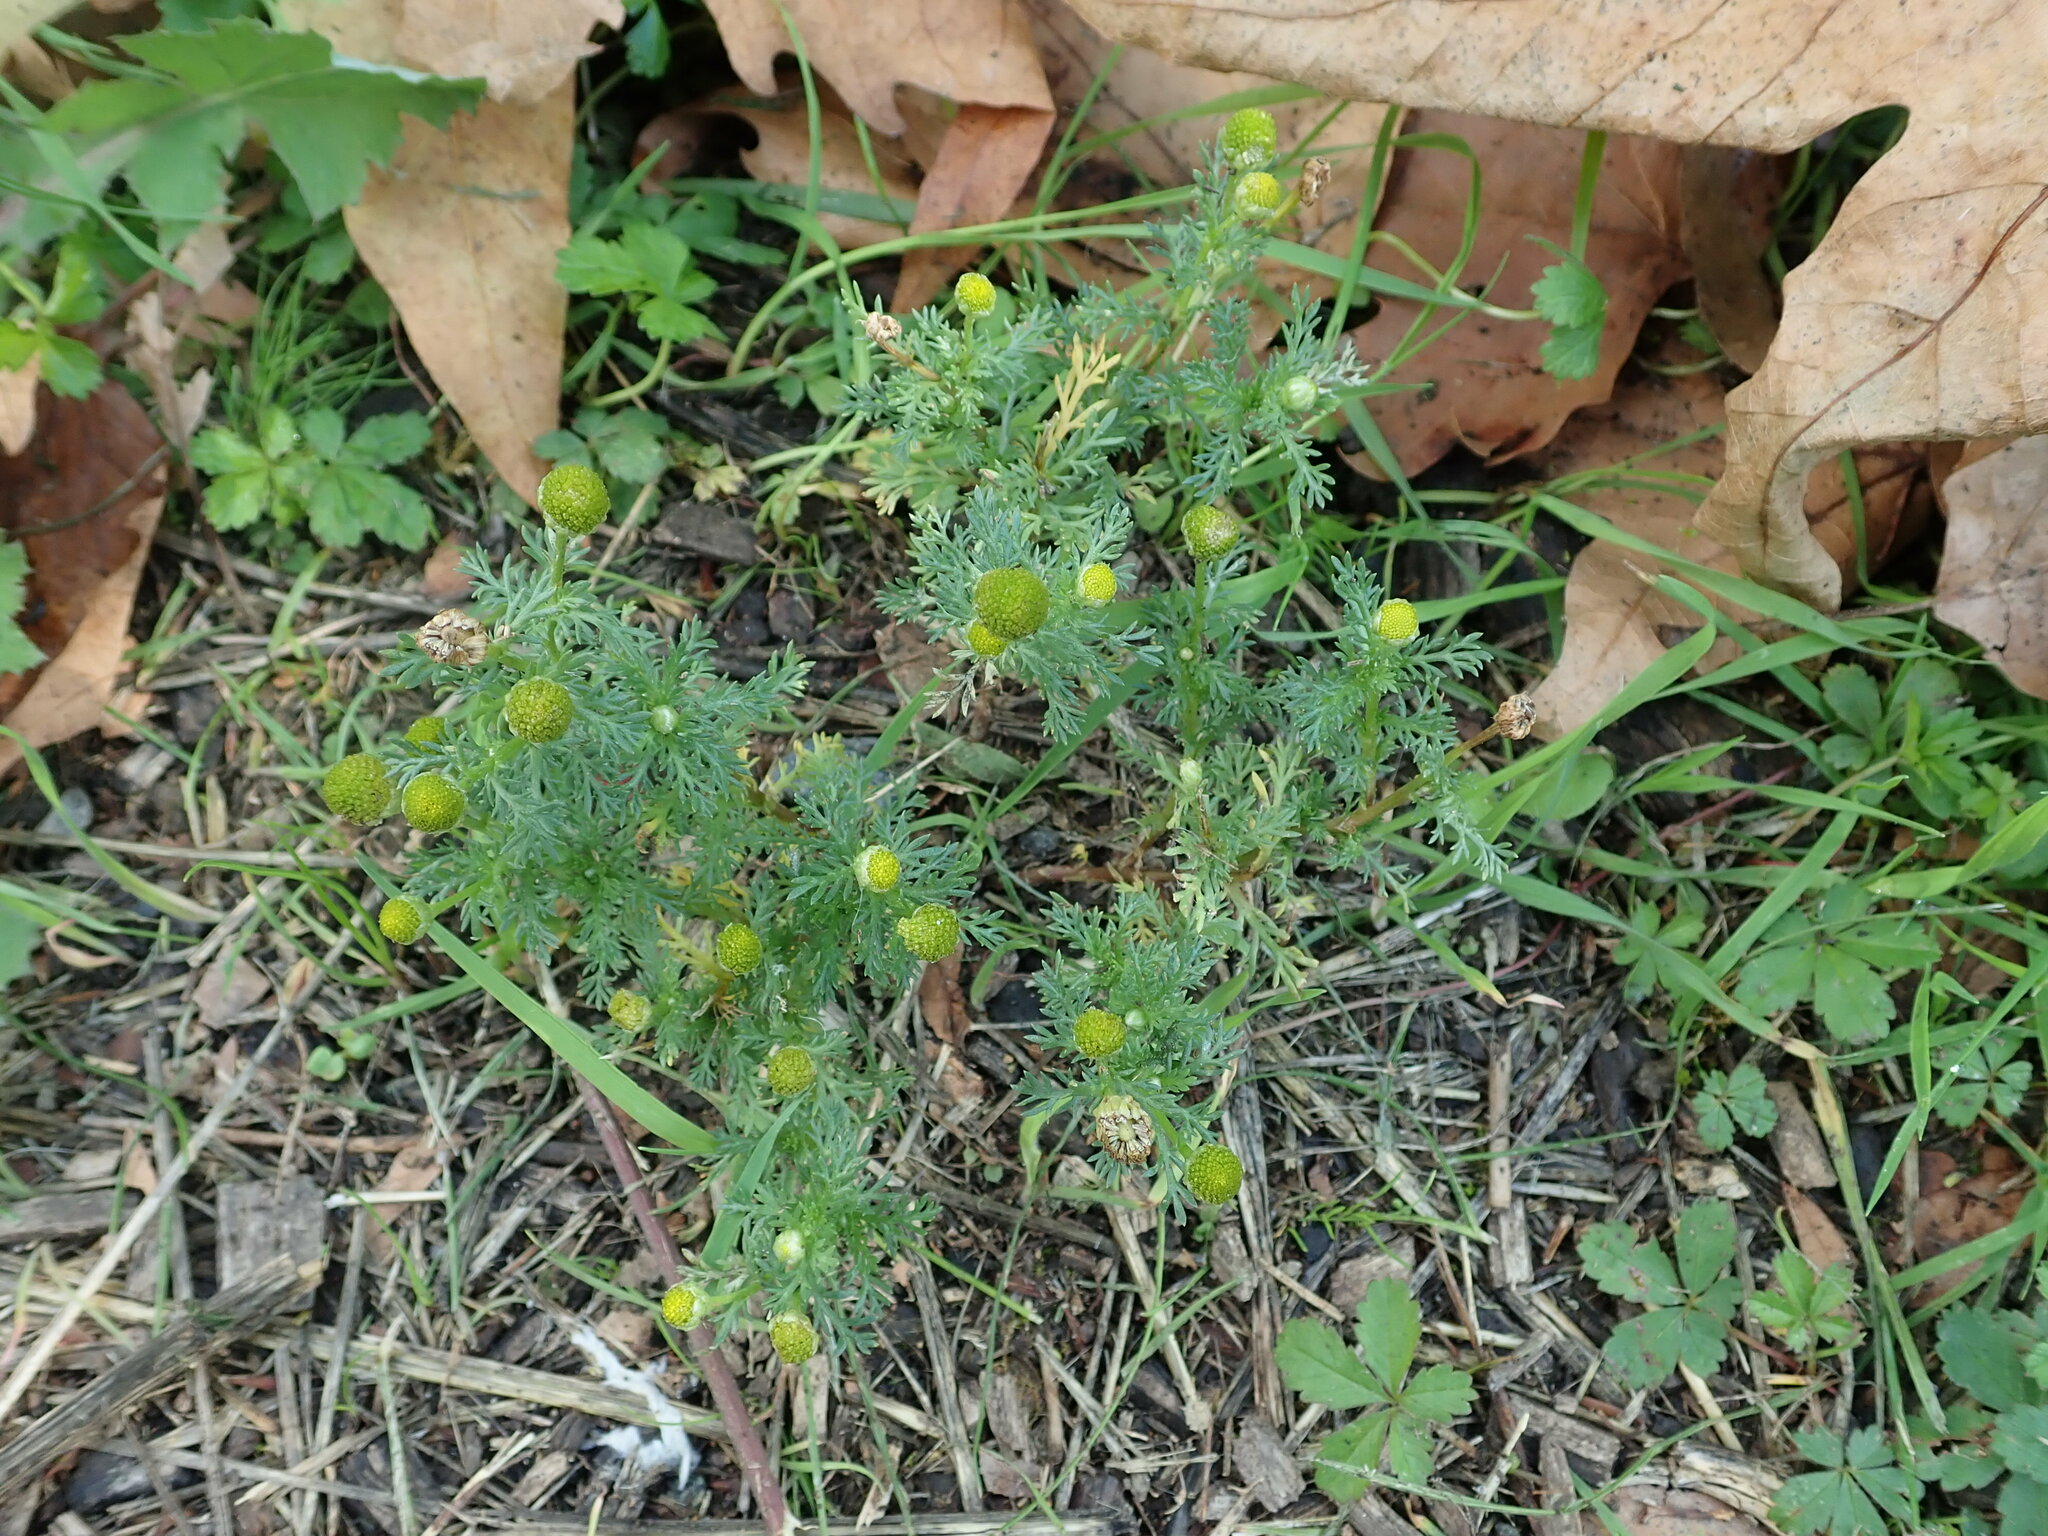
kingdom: Plantae
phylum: Tracheophyta
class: Magnoliopsida
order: Asterales
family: Asteraceae
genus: Matricaria
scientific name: Matricaria discoidea
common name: Disc mayweed
